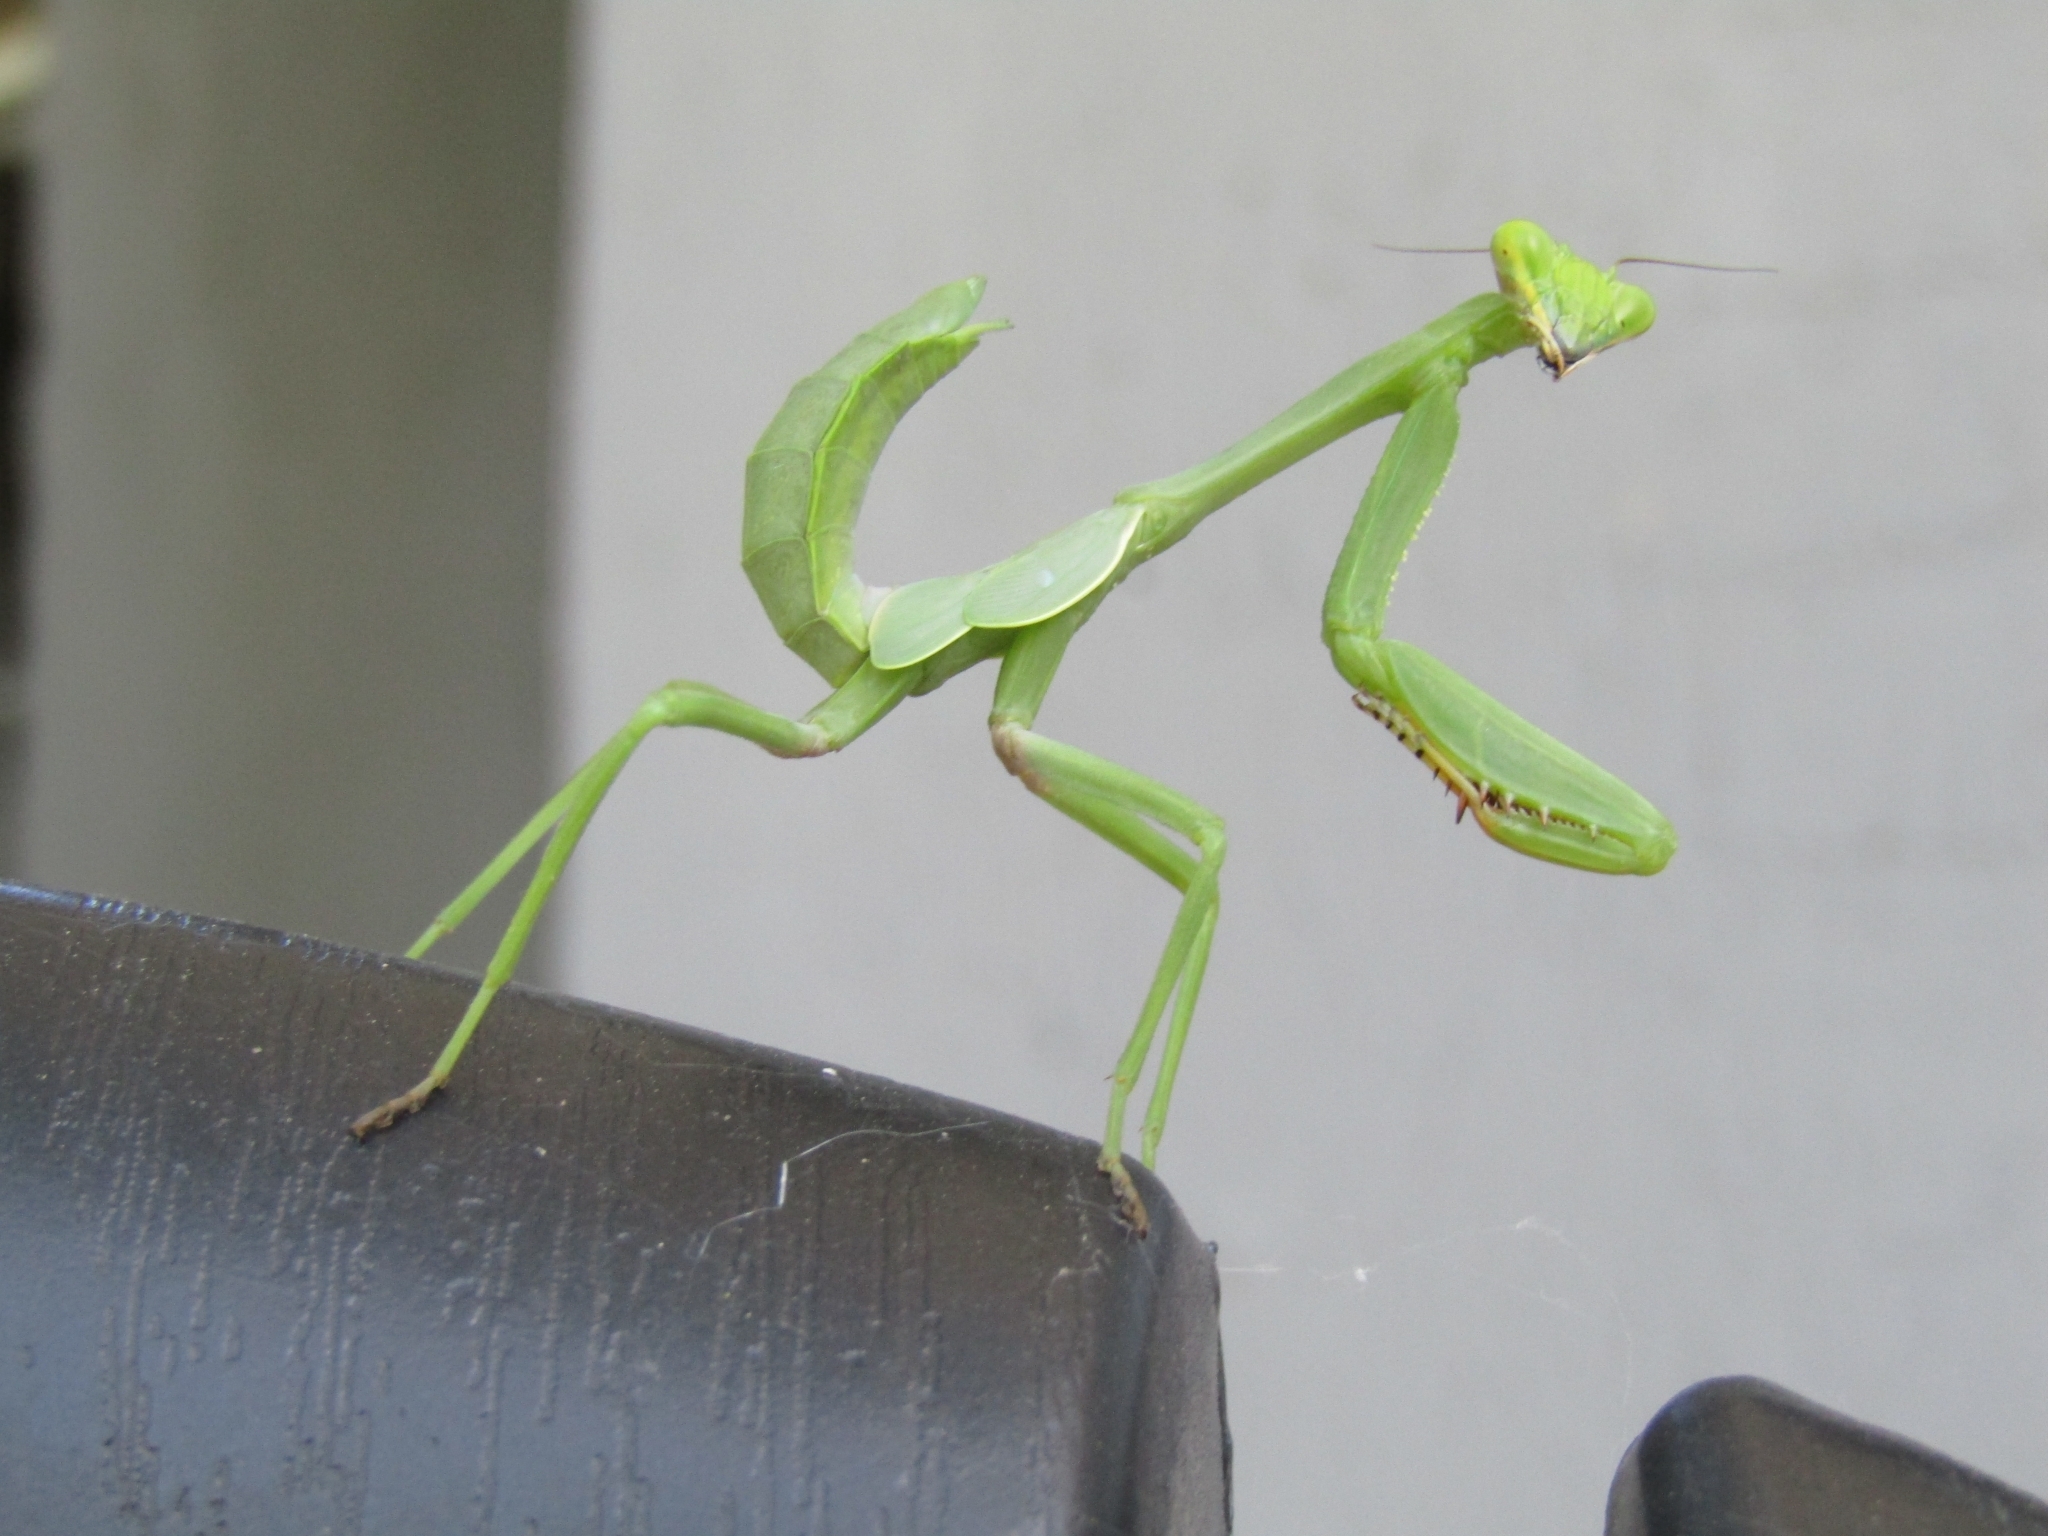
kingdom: Animalia
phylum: Arthropoda
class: Insecta
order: Mantodea
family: Mantidae
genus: Stagmatoptera
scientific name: Stagmatoptera hyaloptera
